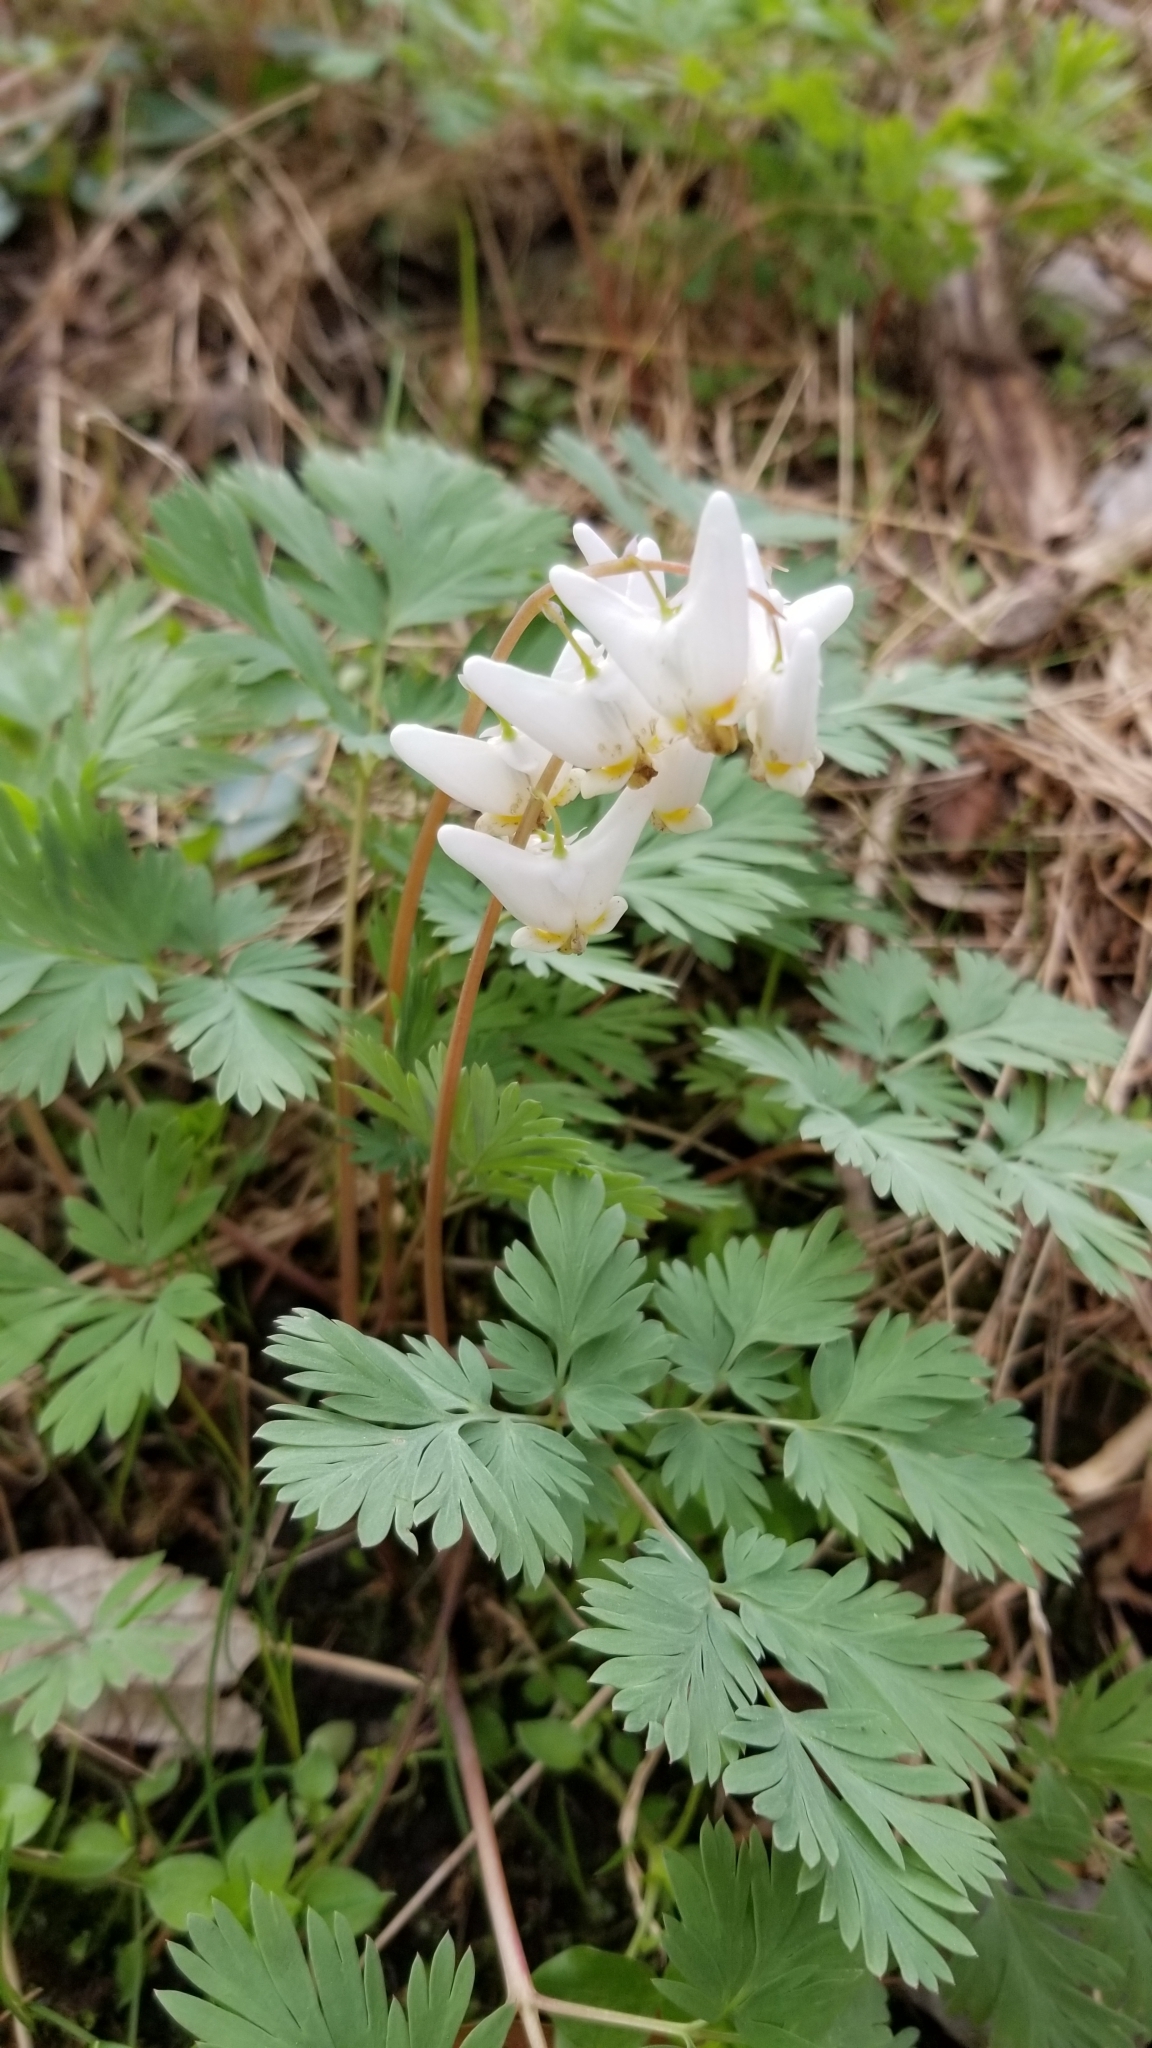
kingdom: Plantae
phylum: Tracheophyta
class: Magnoliopsida
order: Ranunculales
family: Papaveraceae
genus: Dicentra
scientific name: Dicentra cucullaria
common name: Dutchman's breeches
